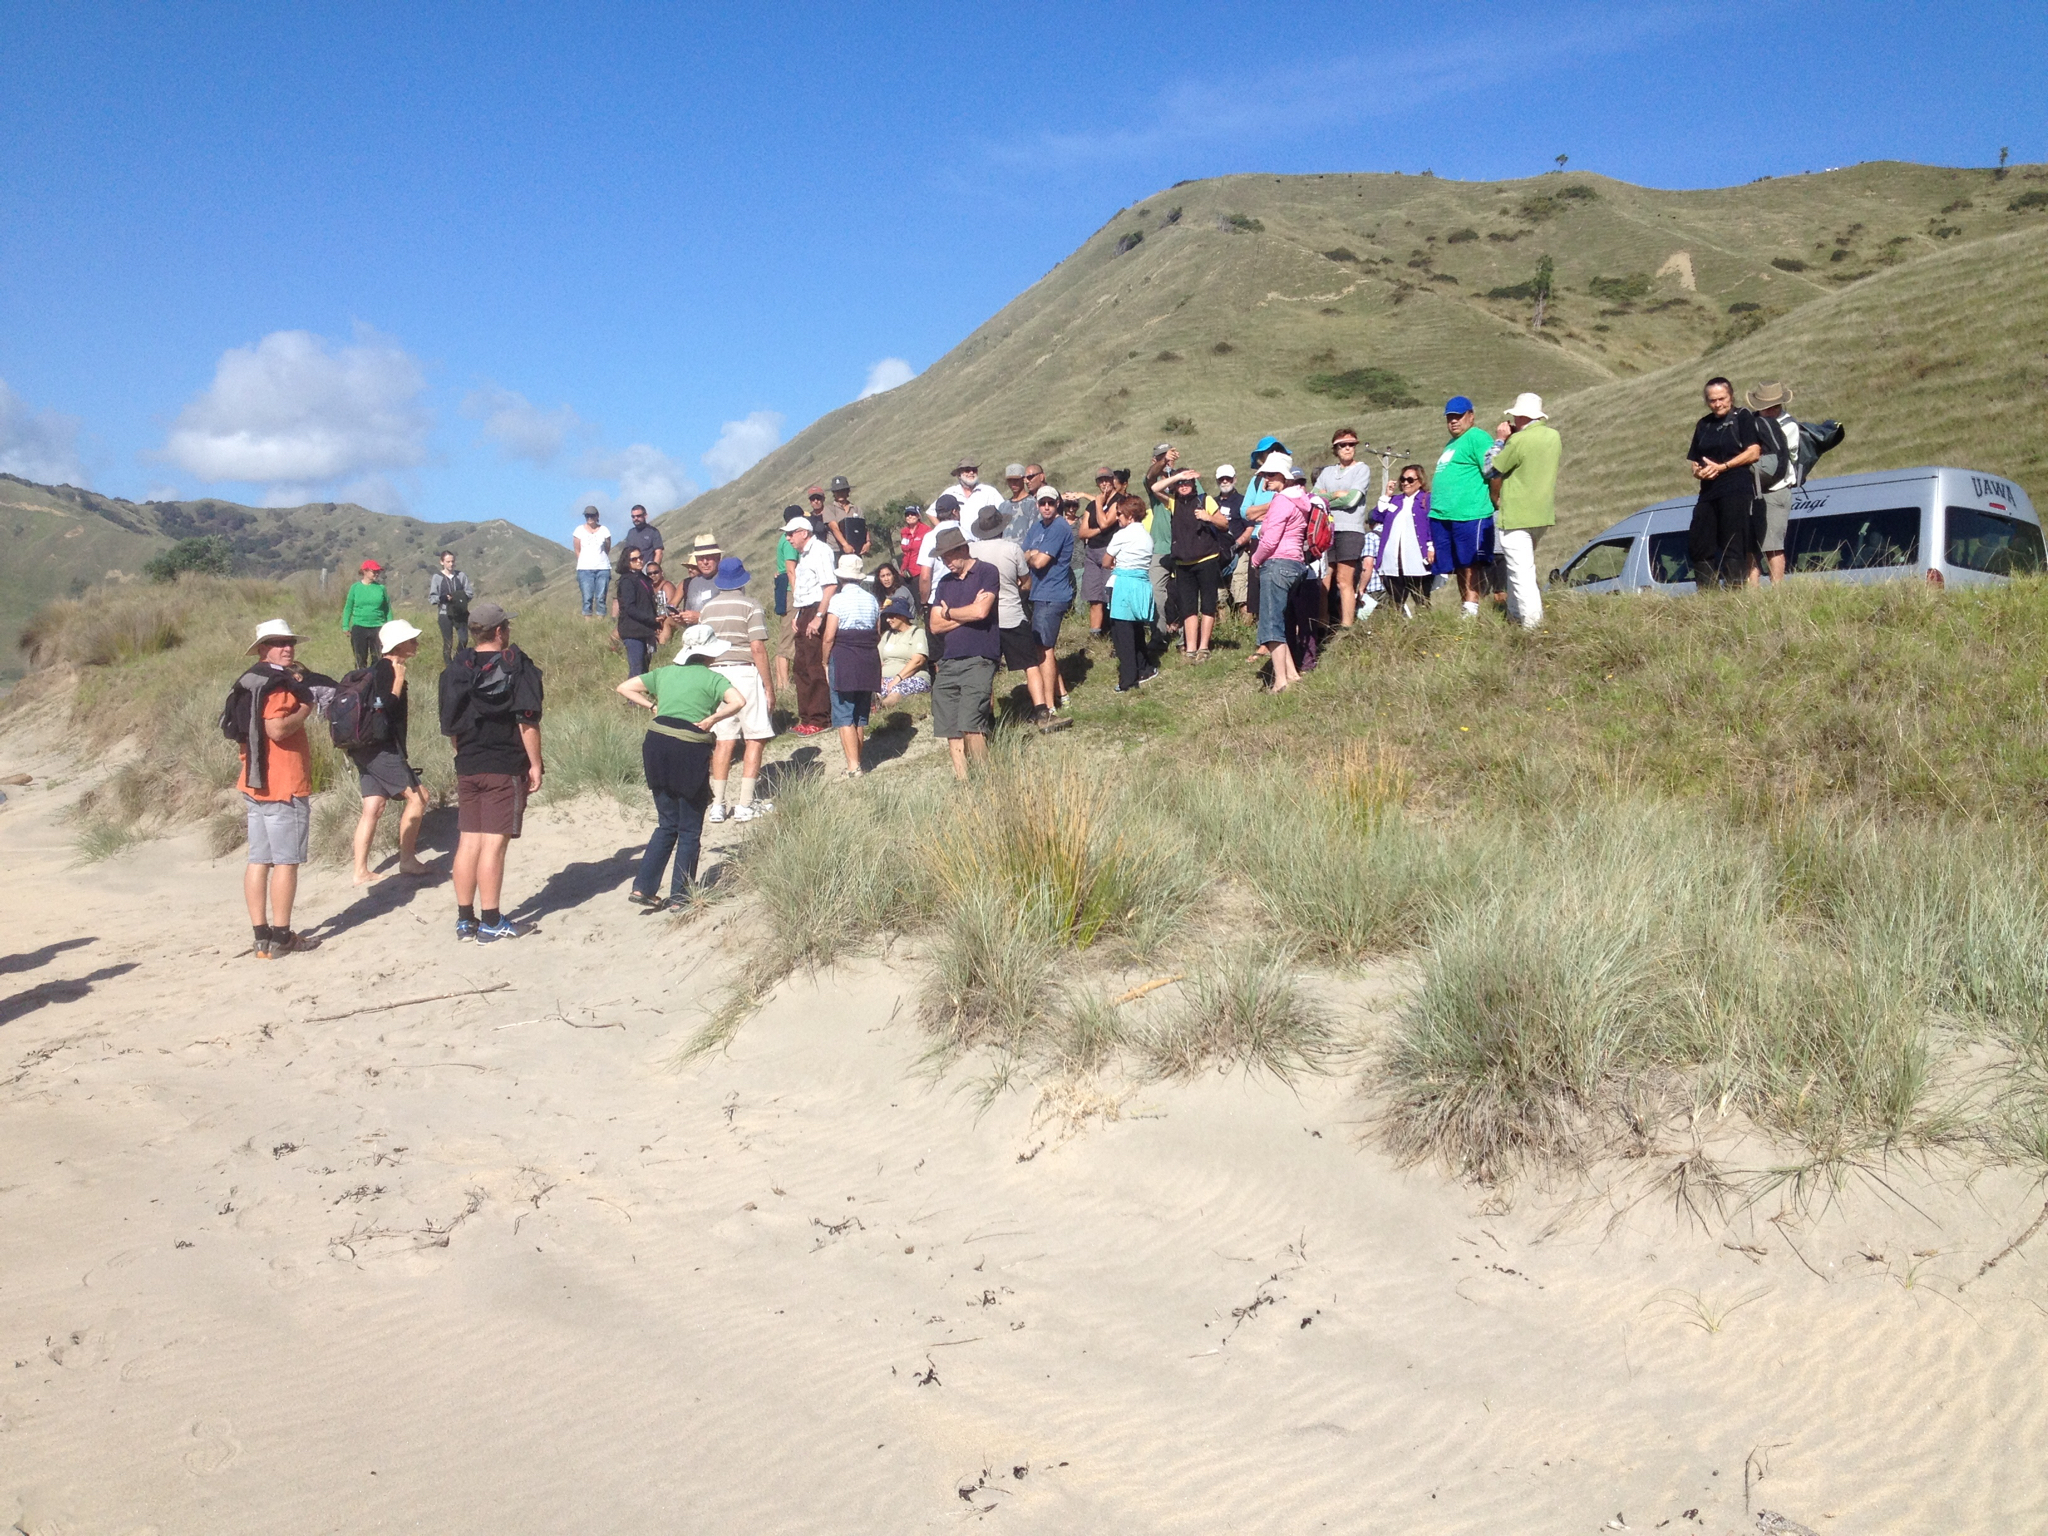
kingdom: Plantae
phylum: Tracheophyta
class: Liliopsida
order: Poales
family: Poaceae
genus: Spinifex
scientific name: Spinifex sericeus
